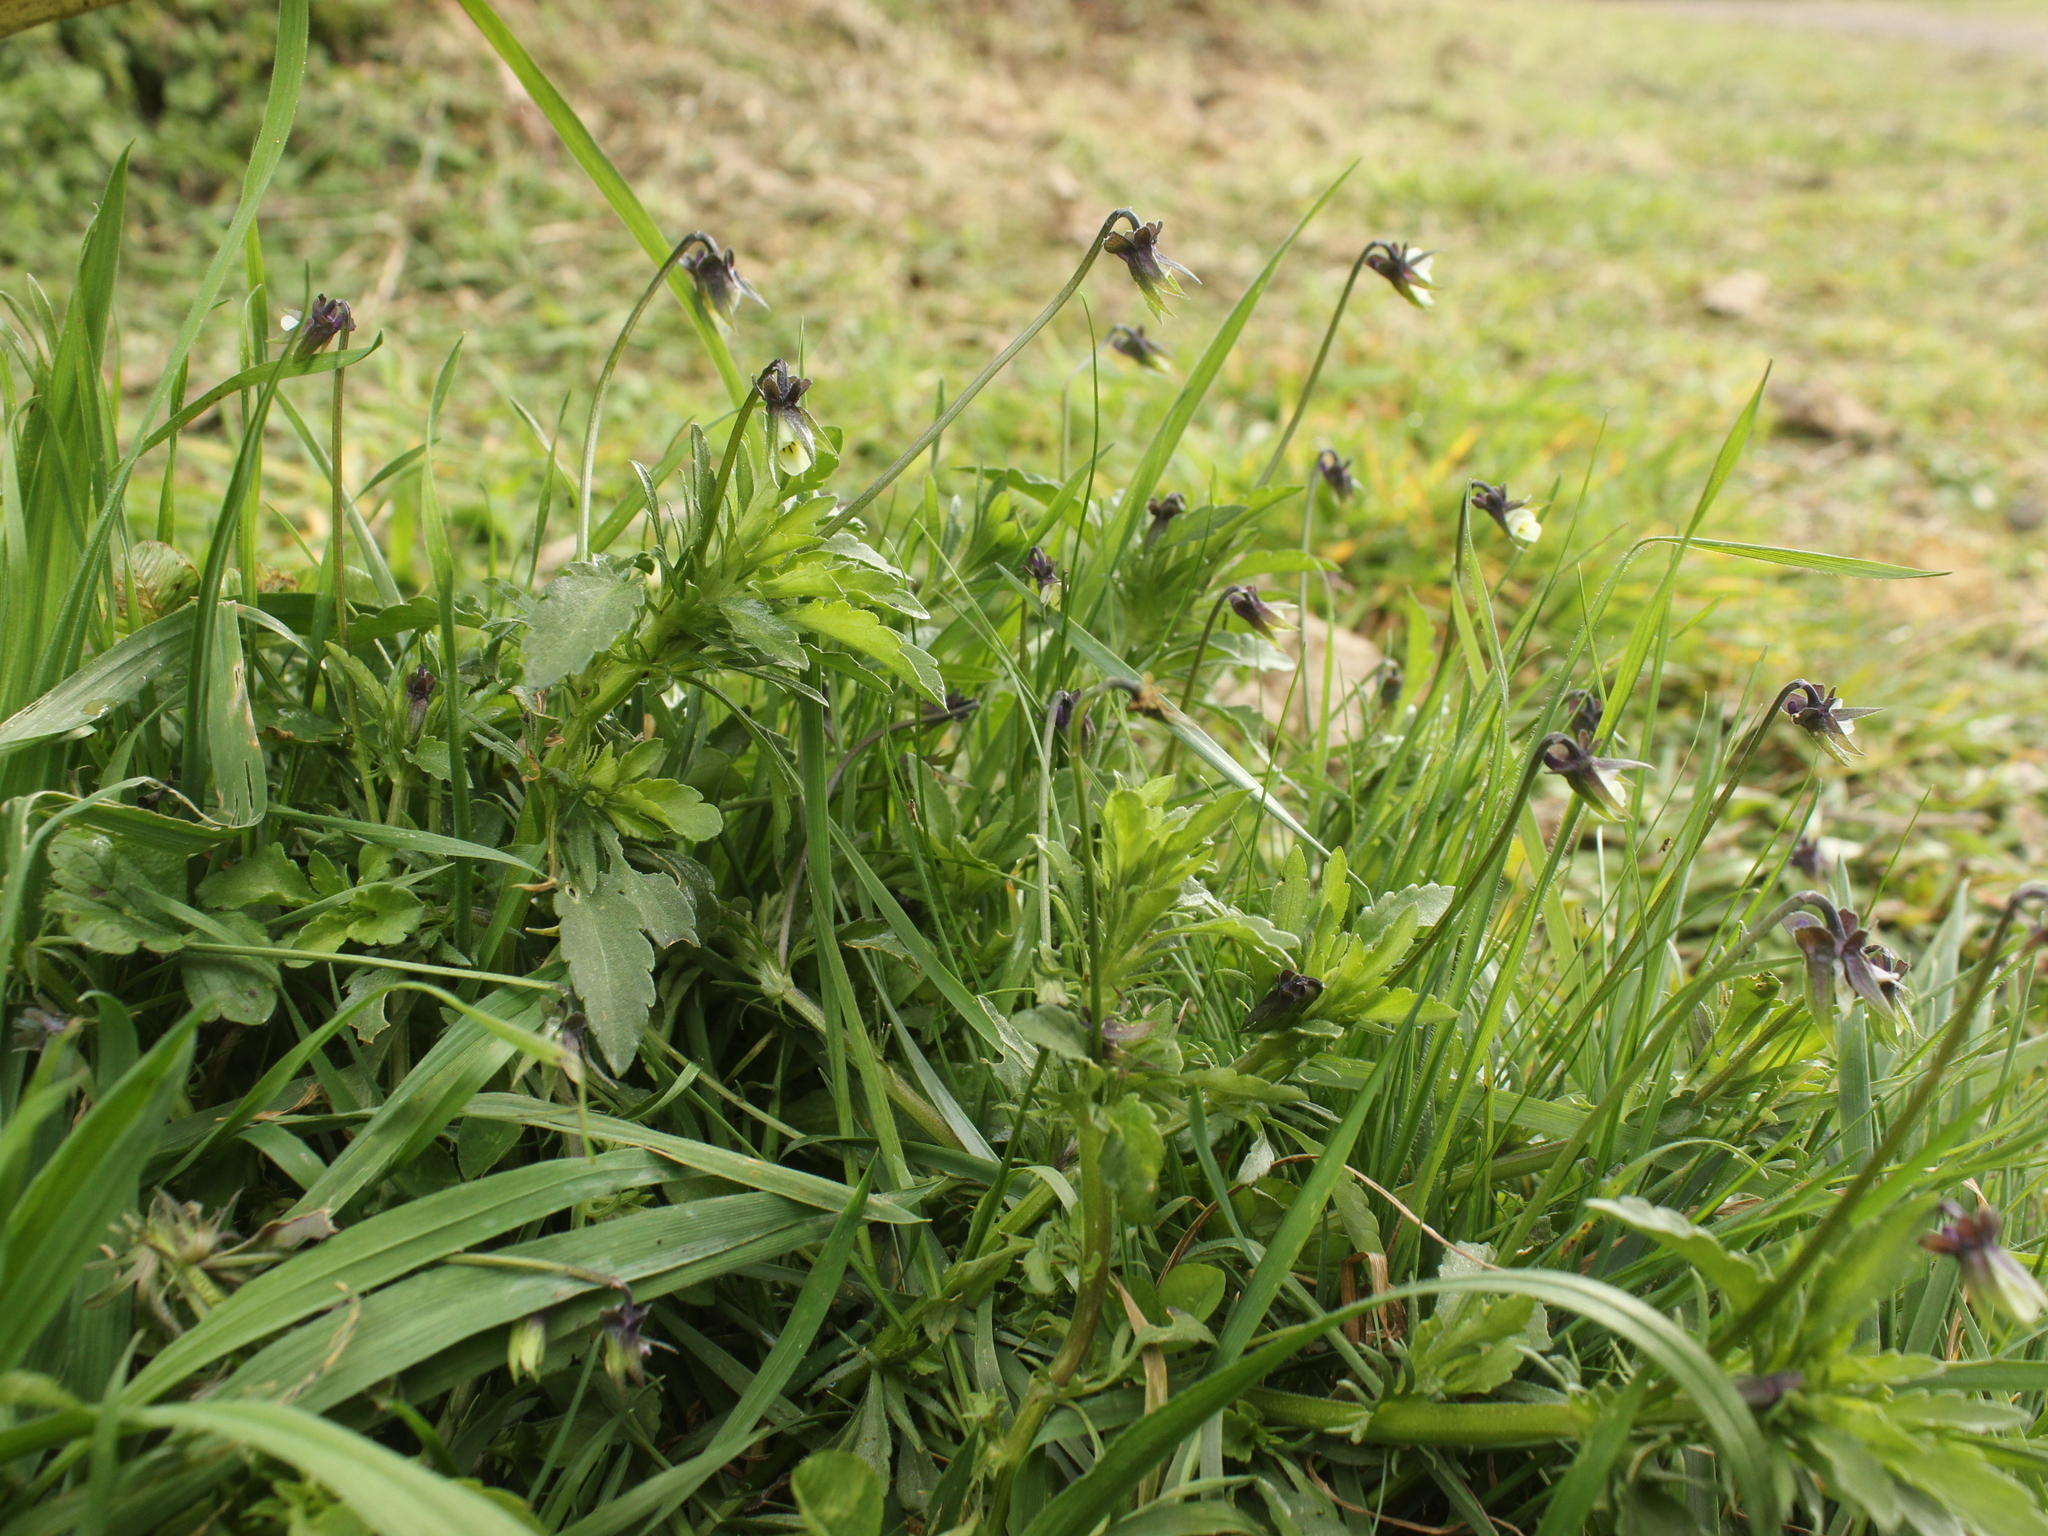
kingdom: Plantae
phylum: Tracheophyta
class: Magnoliopsida
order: Malpighiales
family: Violaceae
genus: Viola
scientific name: Viola arvensis
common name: Field pansy
